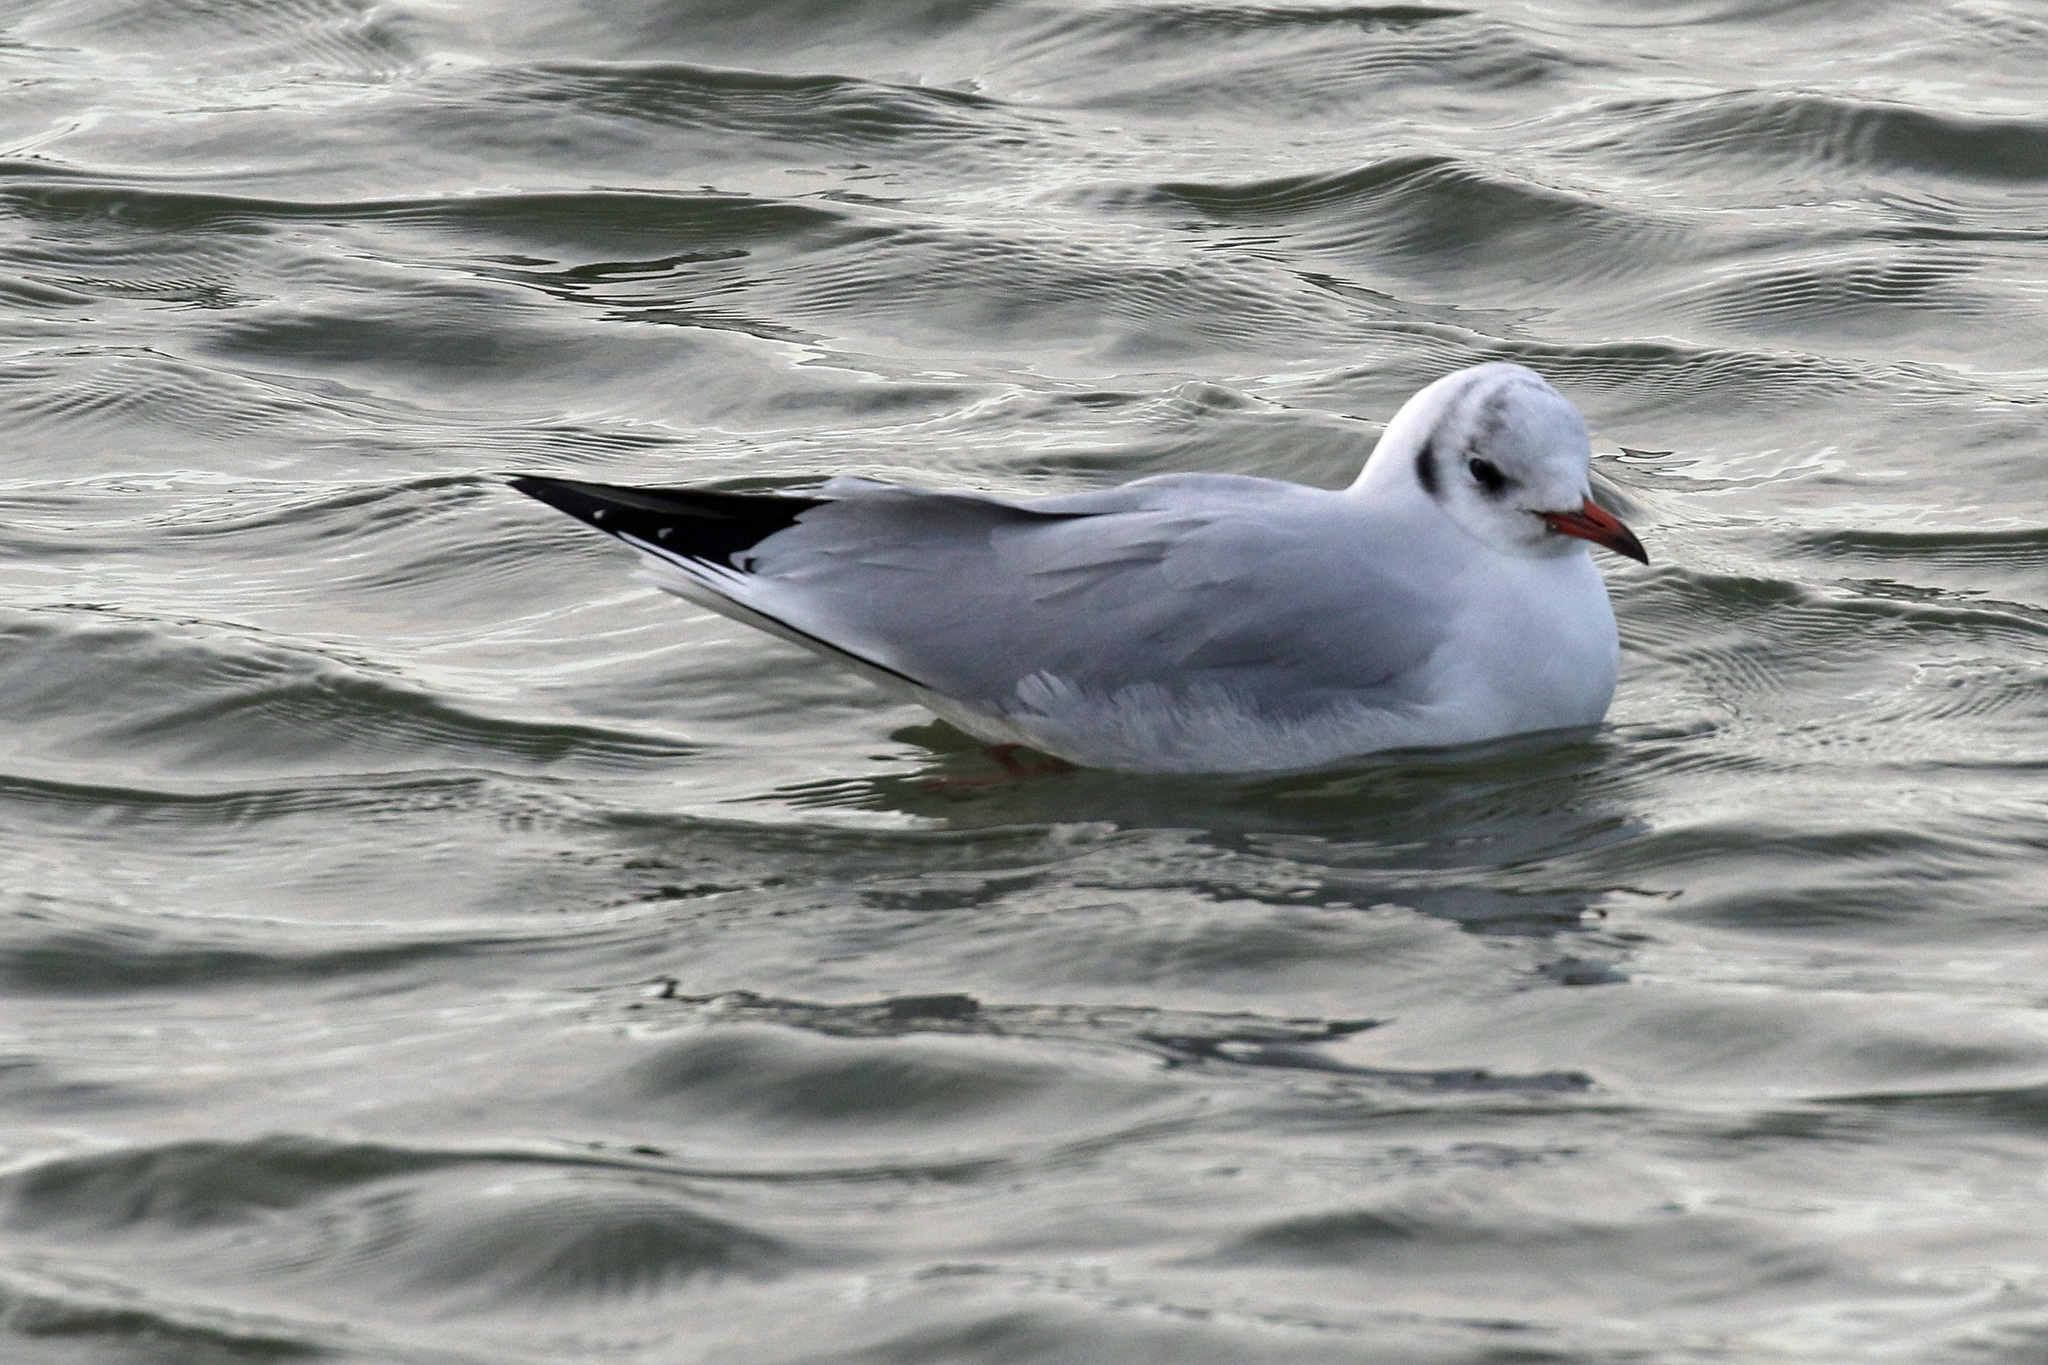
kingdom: Animalia
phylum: Chordata
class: Aves
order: Charadriiformes
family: Laridae
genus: Chroicocephalus
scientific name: Chroicocephalus ridibundus
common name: Black-headed gull
